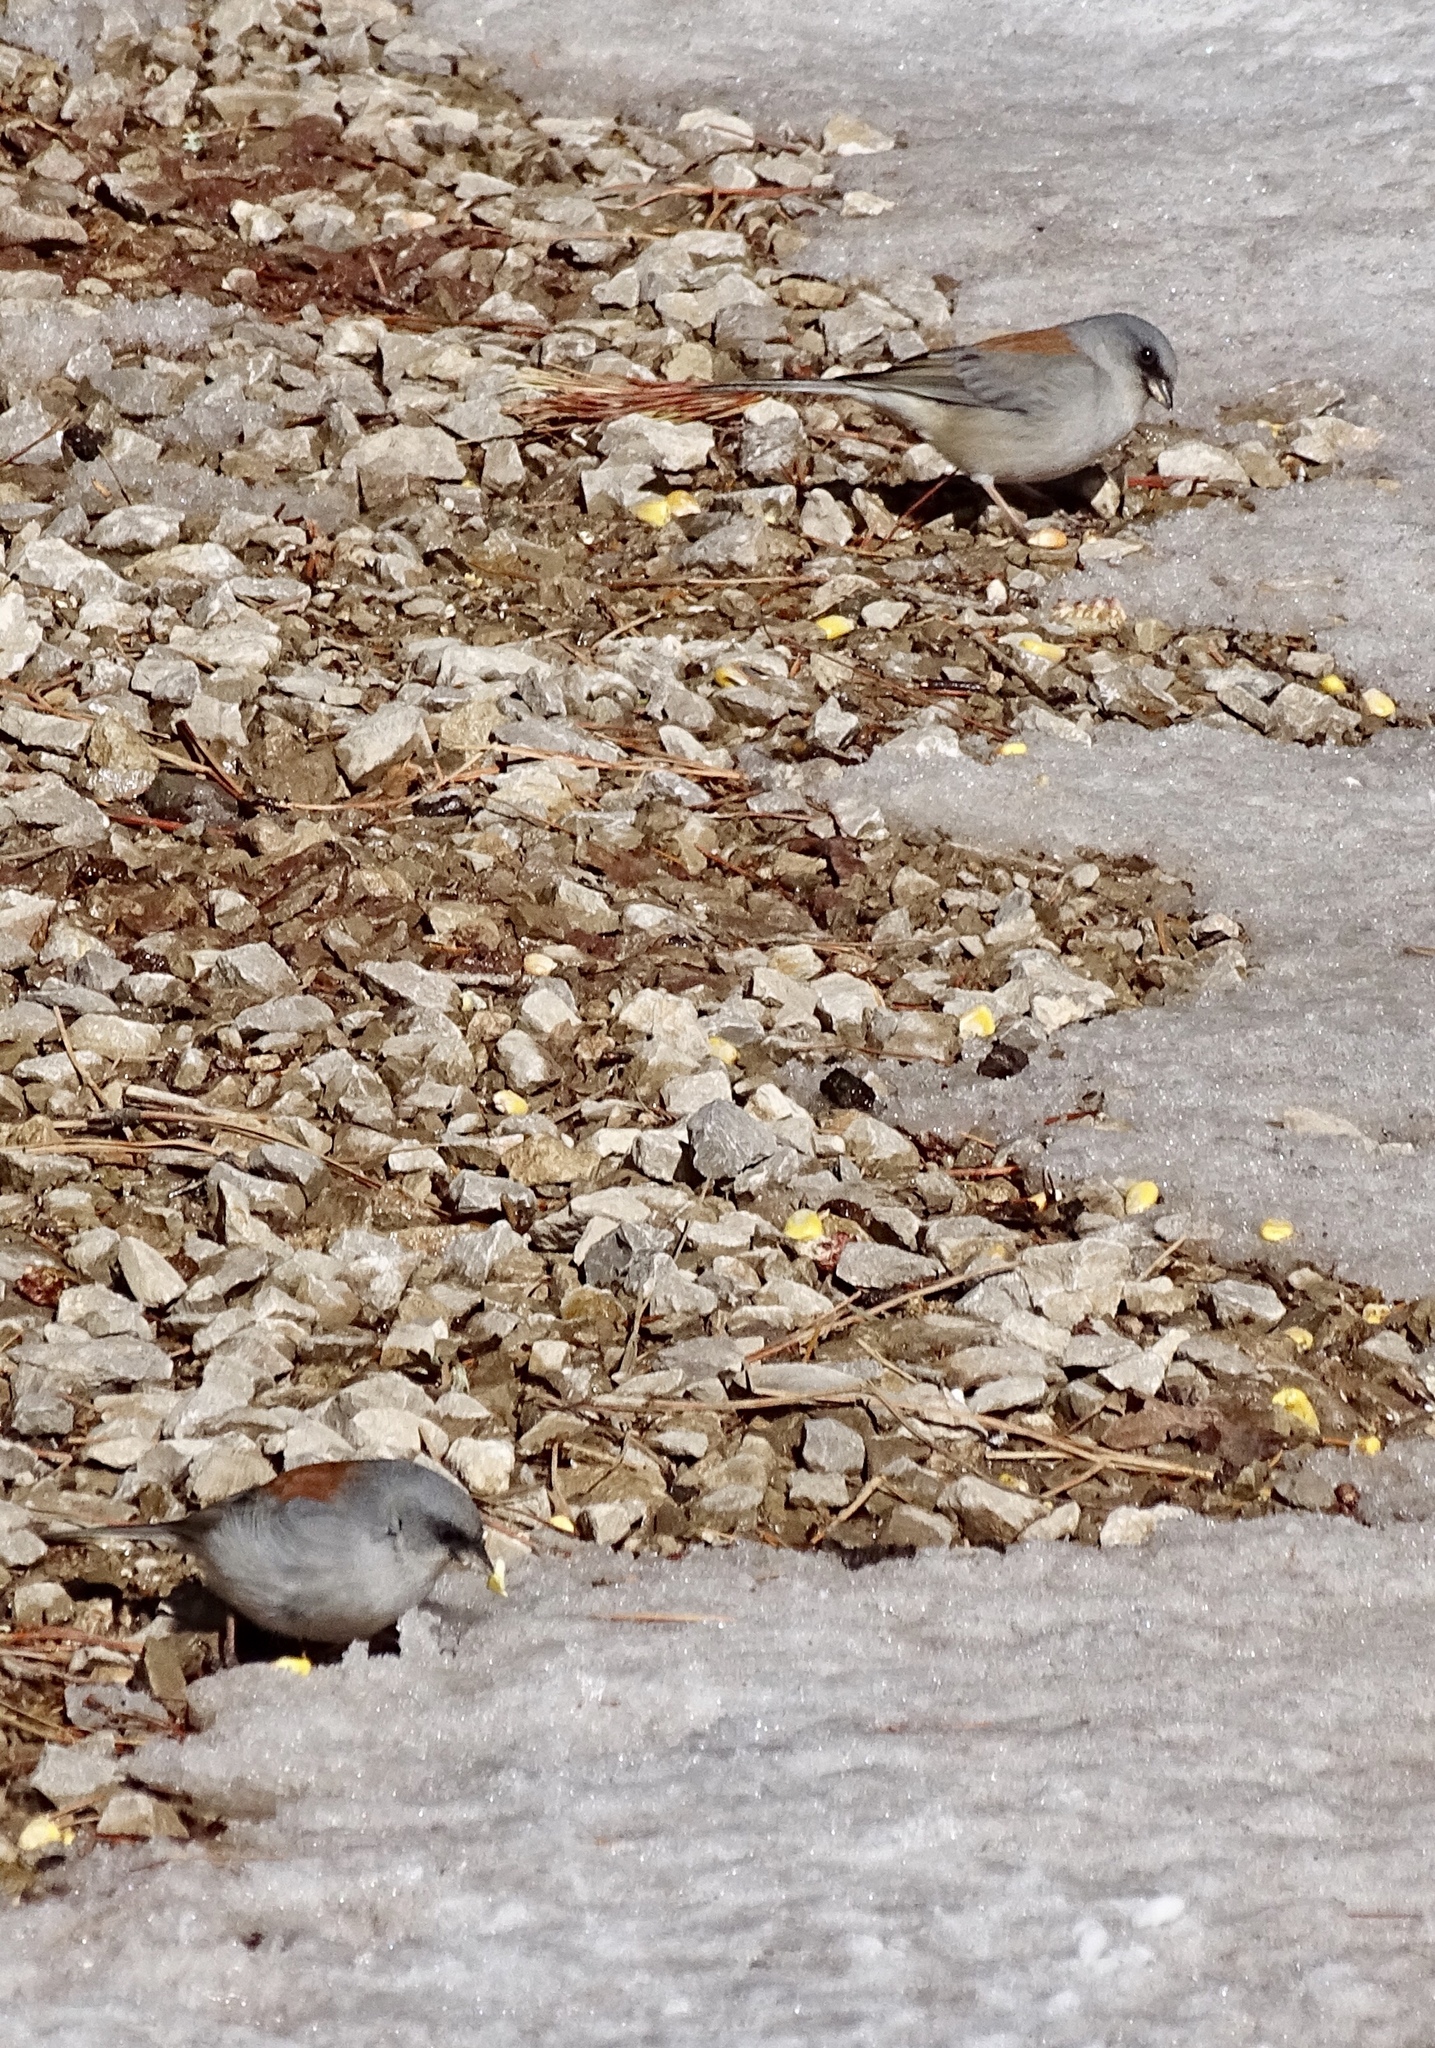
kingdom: Animalia
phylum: Chordata
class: Aves
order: Passeriformes
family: Passerellidae
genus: Junco
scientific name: Junco hyemalis
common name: Dark-eyed junco
